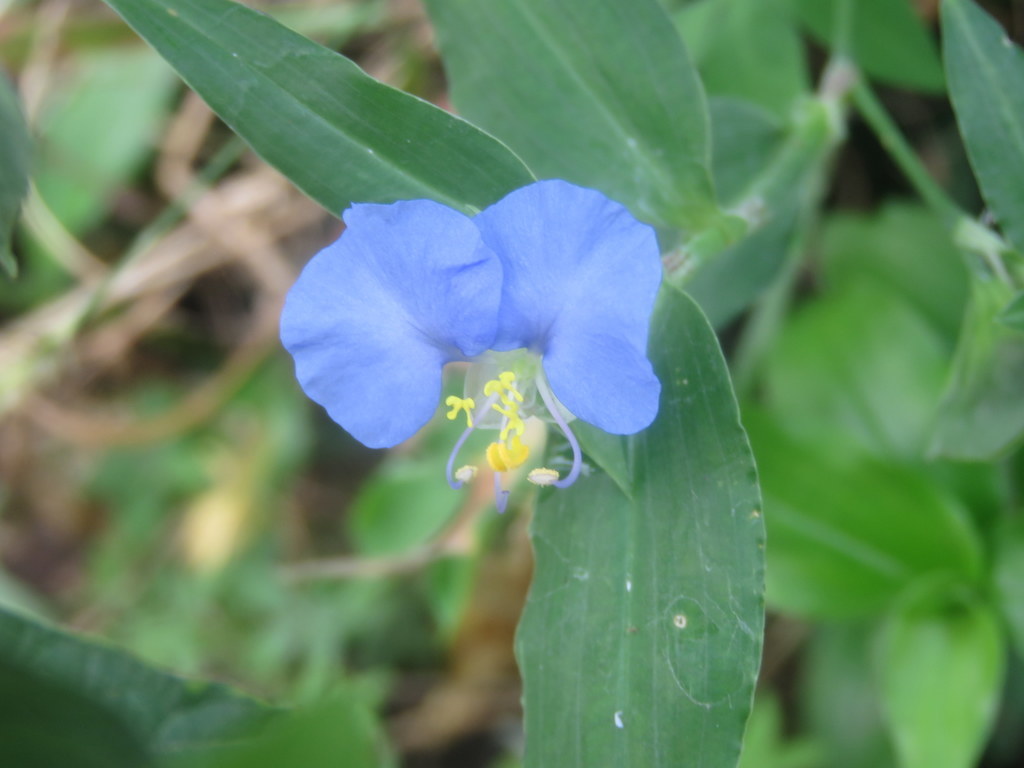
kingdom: Plantae
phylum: Tracheophyta
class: Liliopsida
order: Commelinales
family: Commelinaceae
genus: Commelina
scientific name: Commelina erecta
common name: Blousel blommetjie
